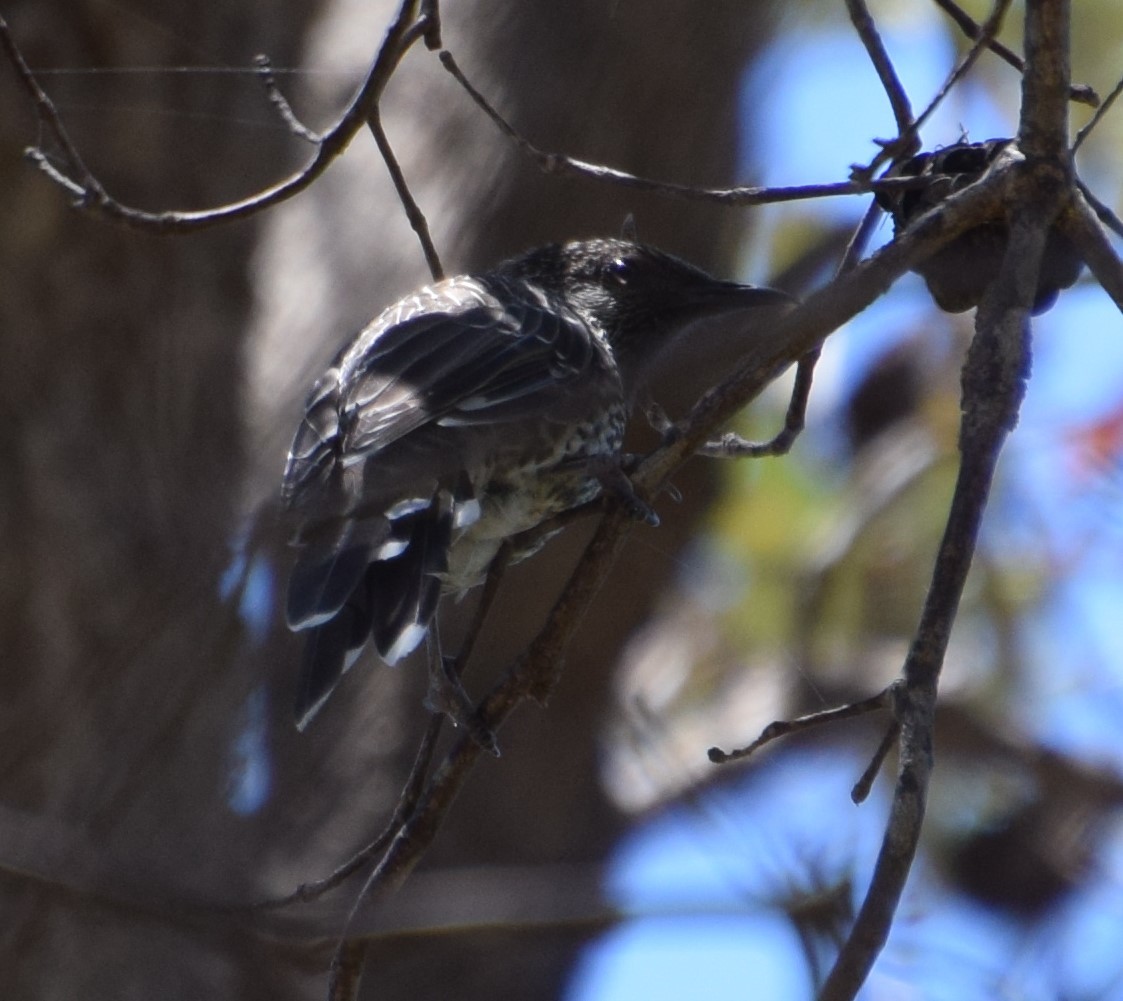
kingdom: Animalia
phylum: Chordata
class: Aves
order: Passeriformes
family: Meliphagidae
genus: Anthochaera
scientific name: Anthochaera chrysoptera
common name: Little wattlebird
